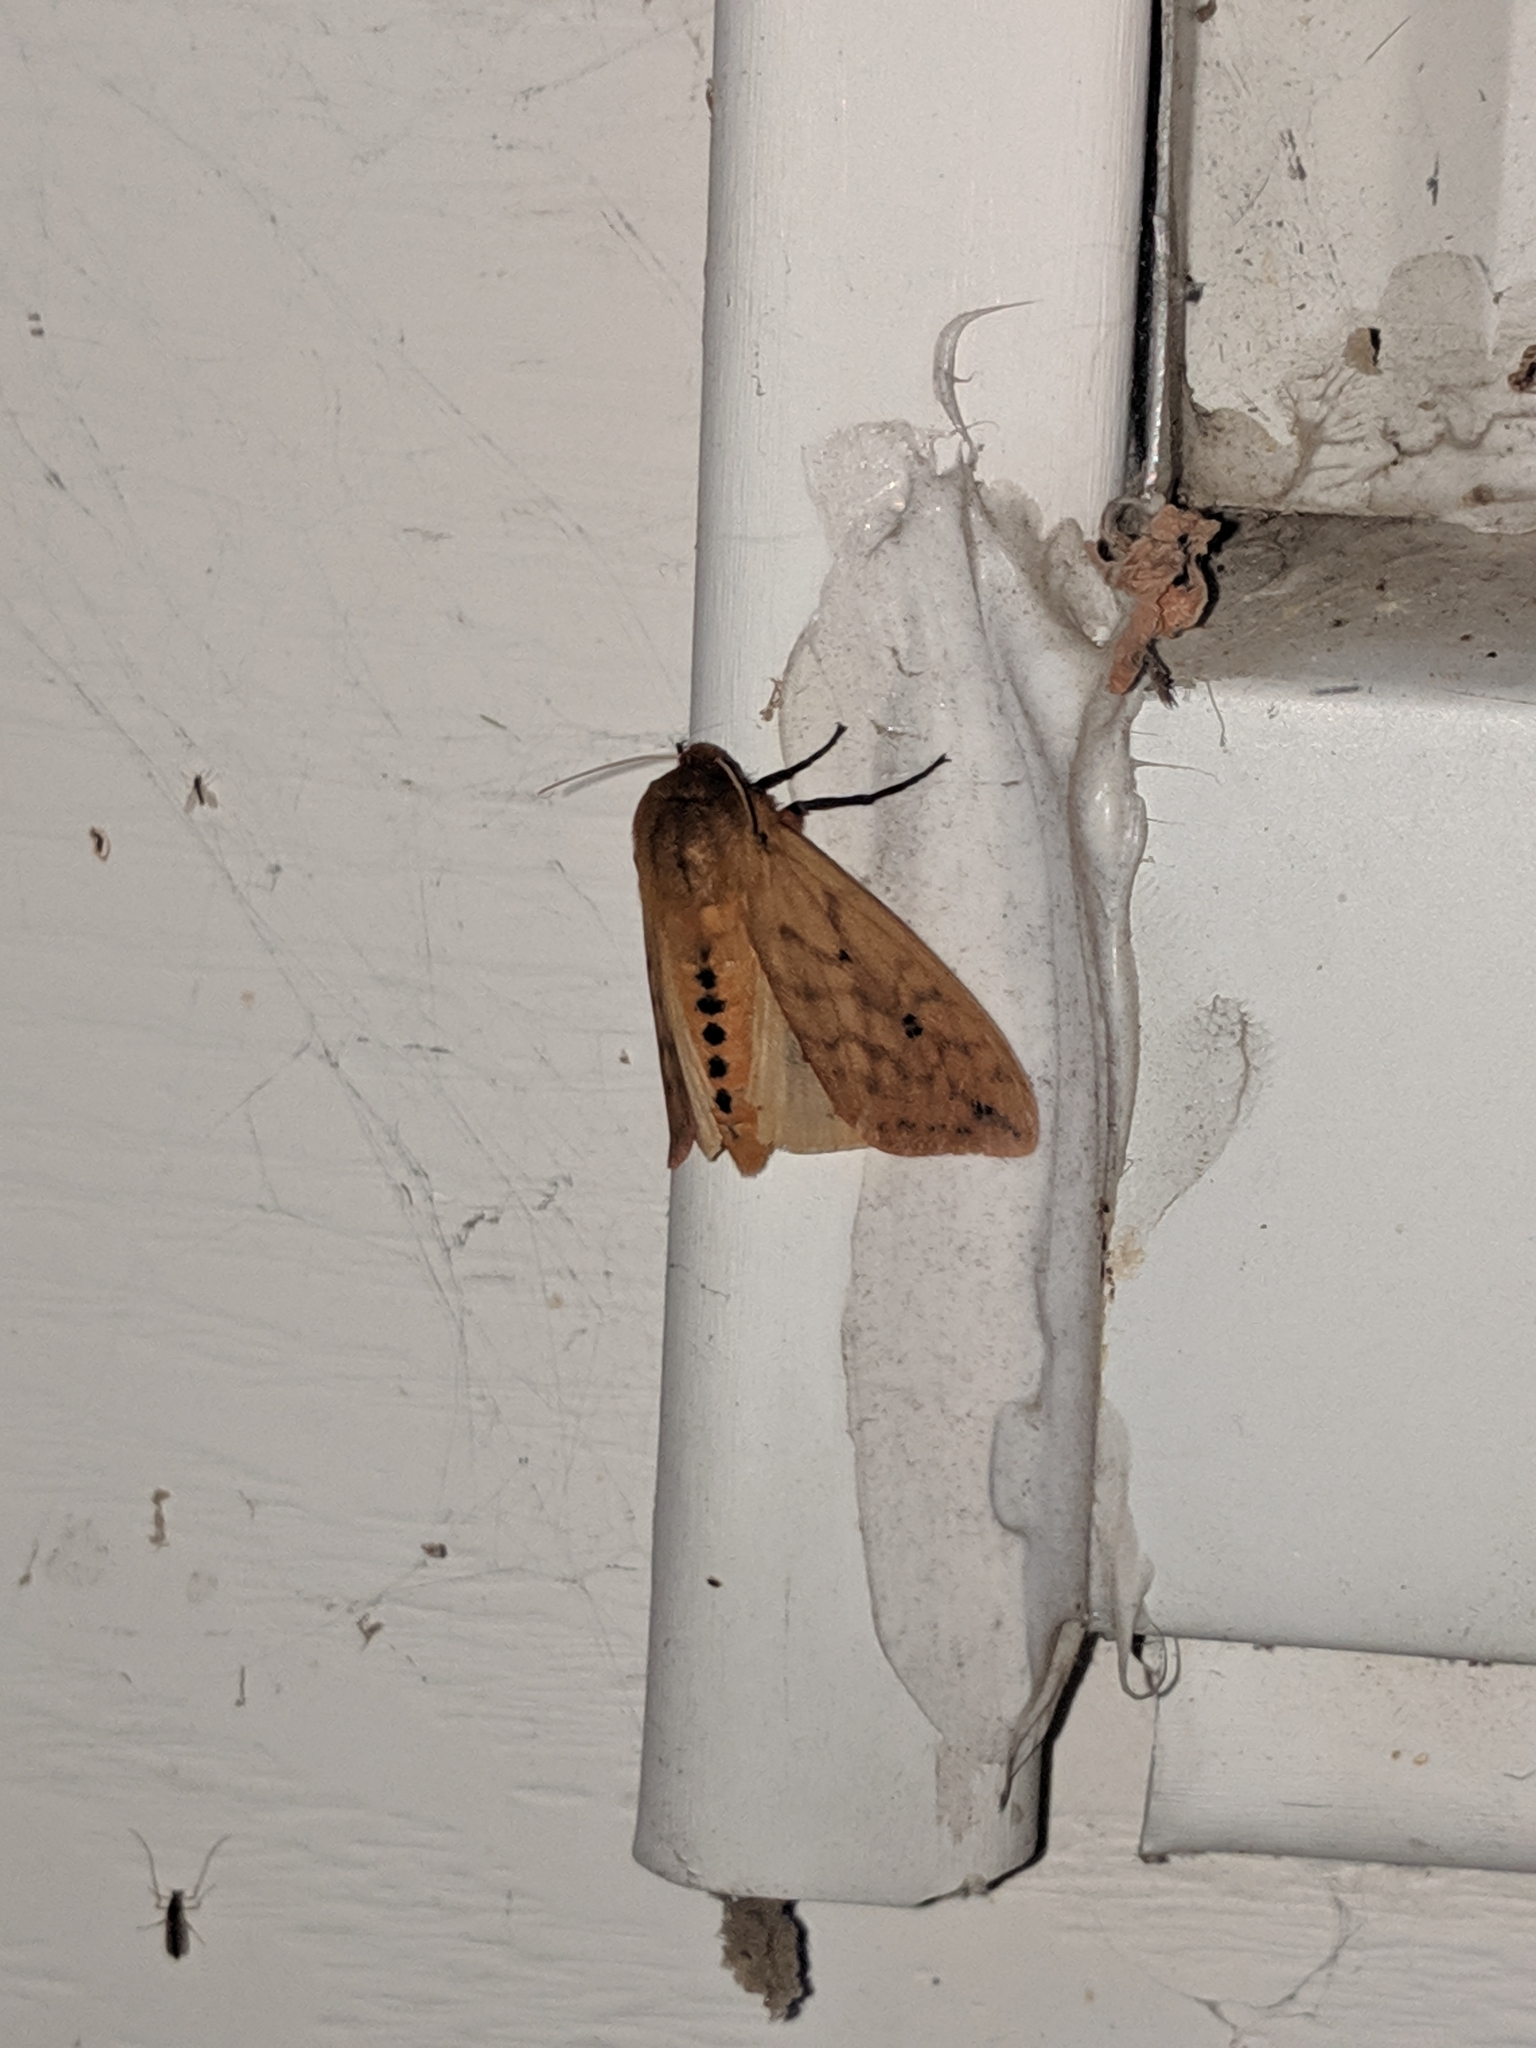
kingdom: Animalia
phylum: Arthropoda
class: Insecta
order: Lepidoptera
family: Erebidae
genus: Pyrrharctia
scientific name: Pyrrharctia isabella
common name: Isabella tiger moth
